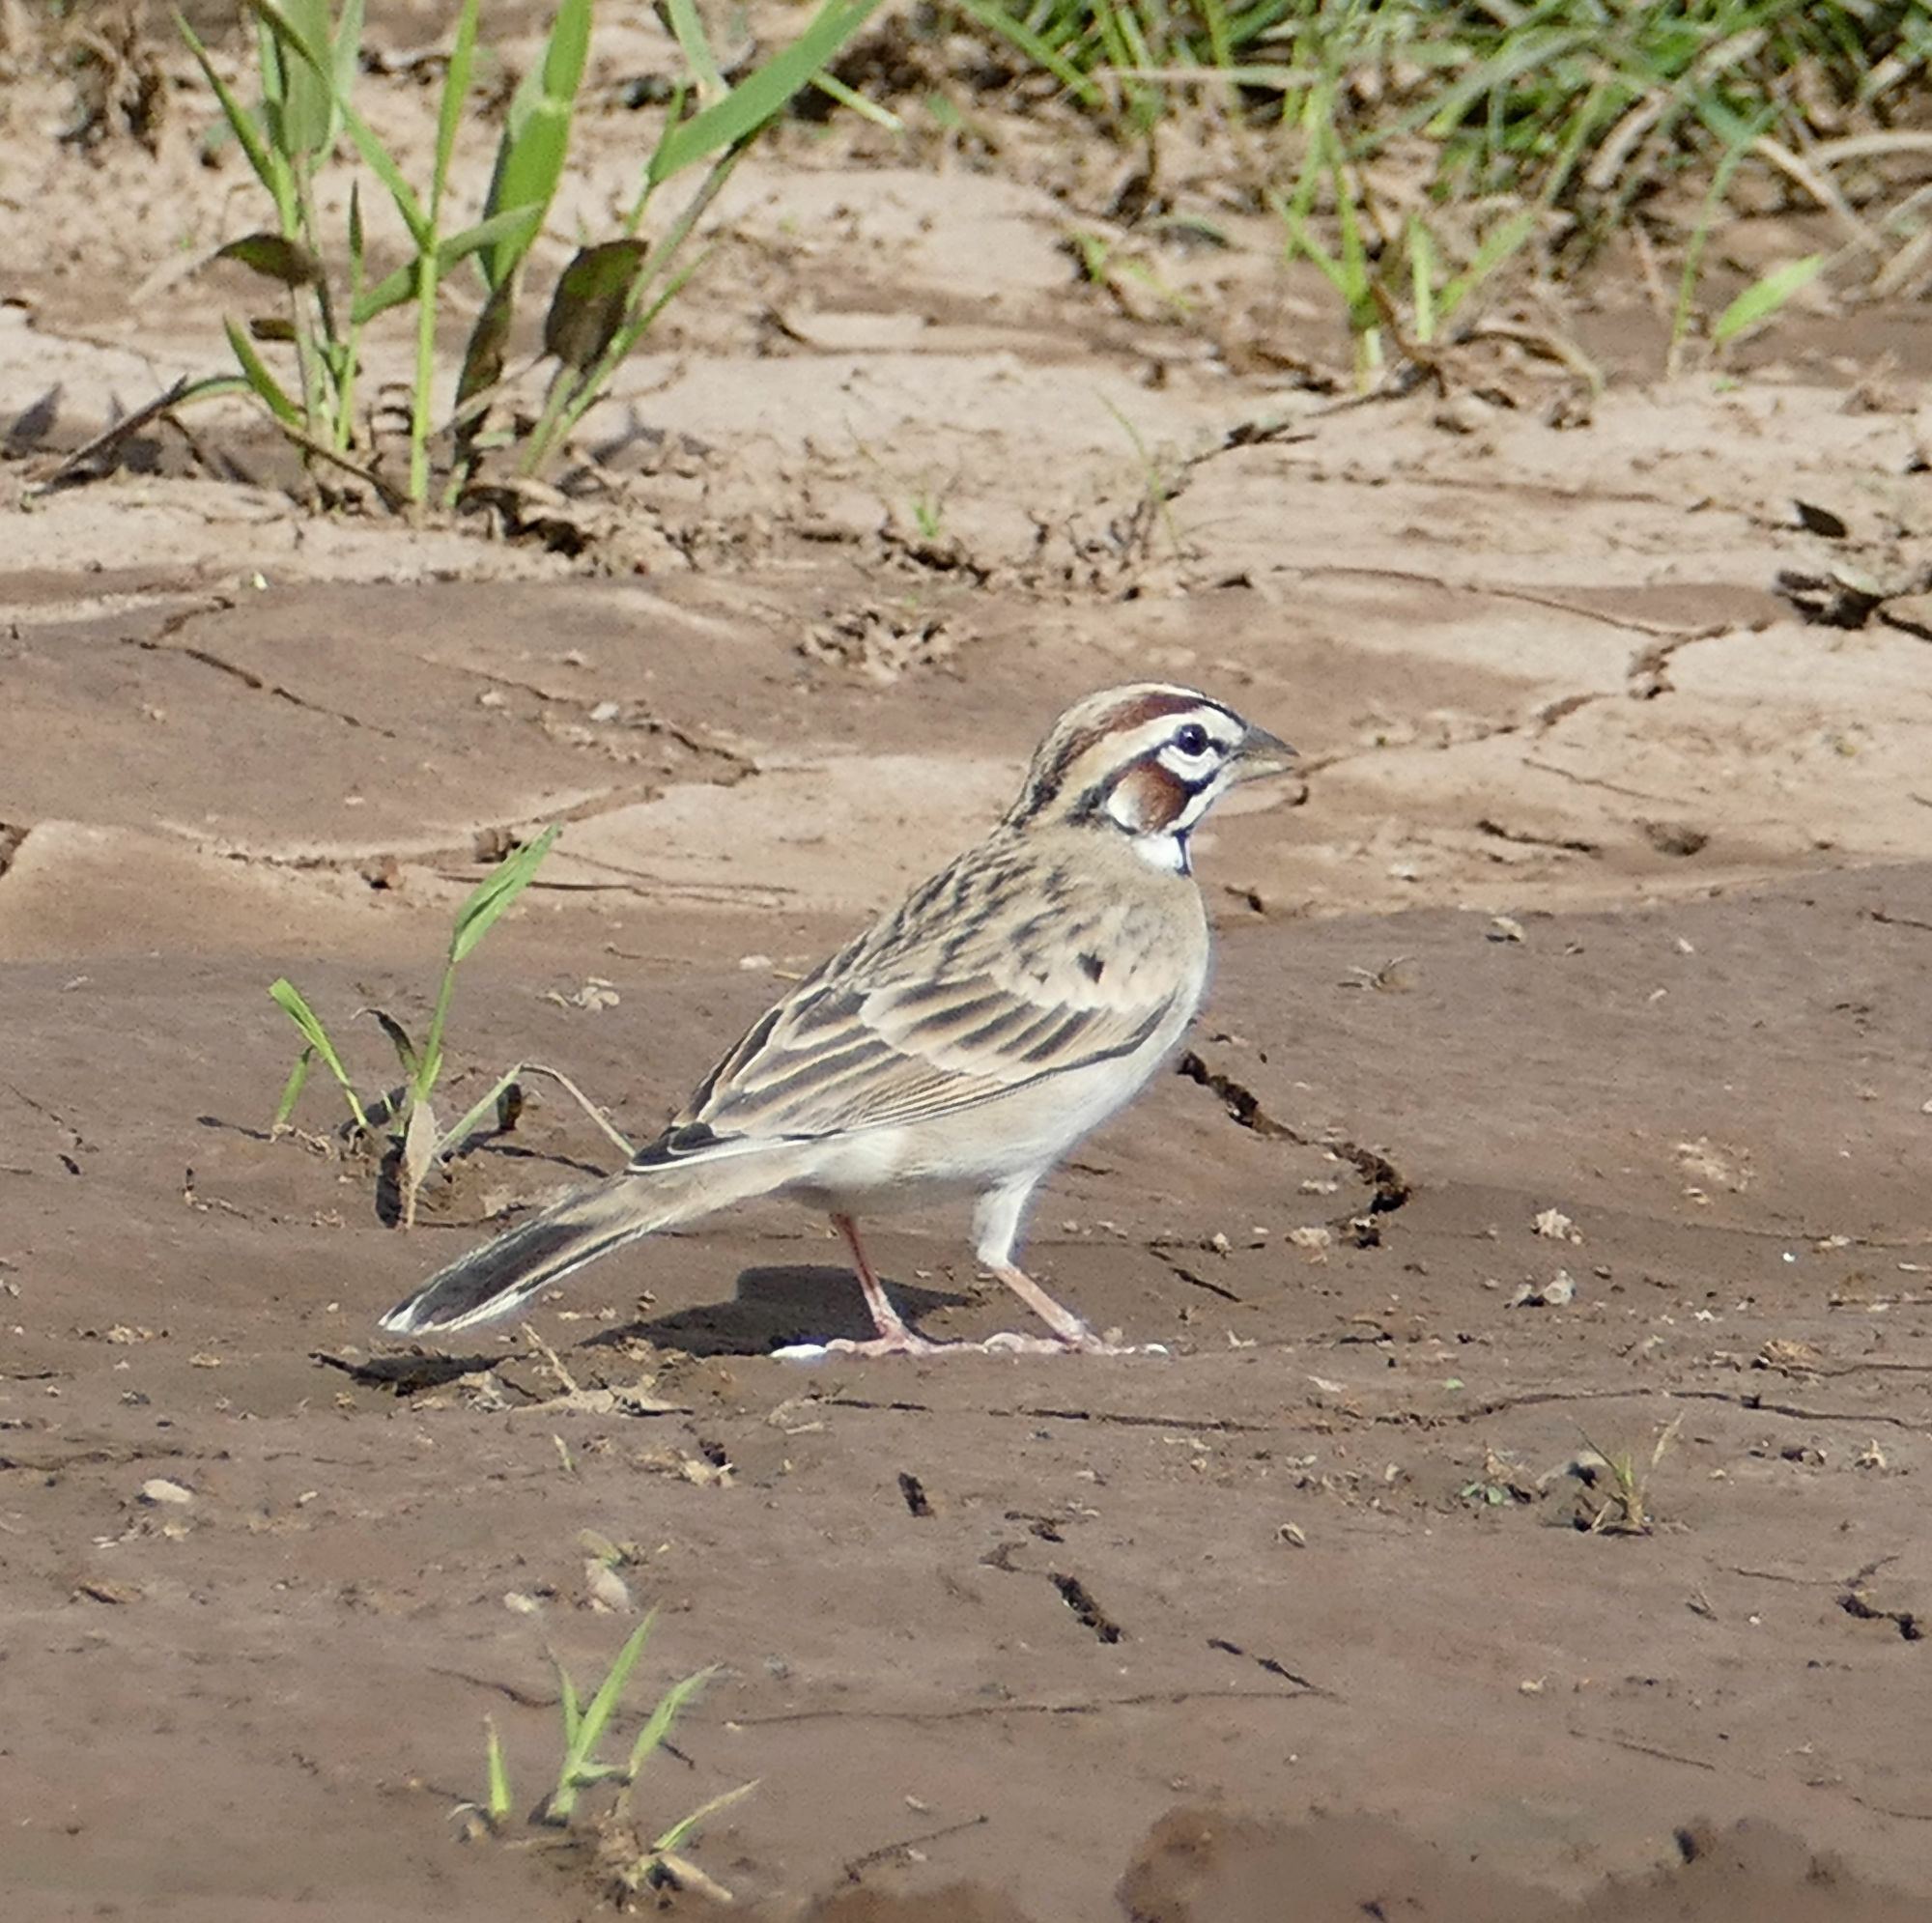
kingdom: Animalia
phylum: Chordata
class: Aves
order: Passeriformes
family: Passerellidae
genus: Chondestes
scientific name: Chondestes grammacus
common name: Lark sparrow
